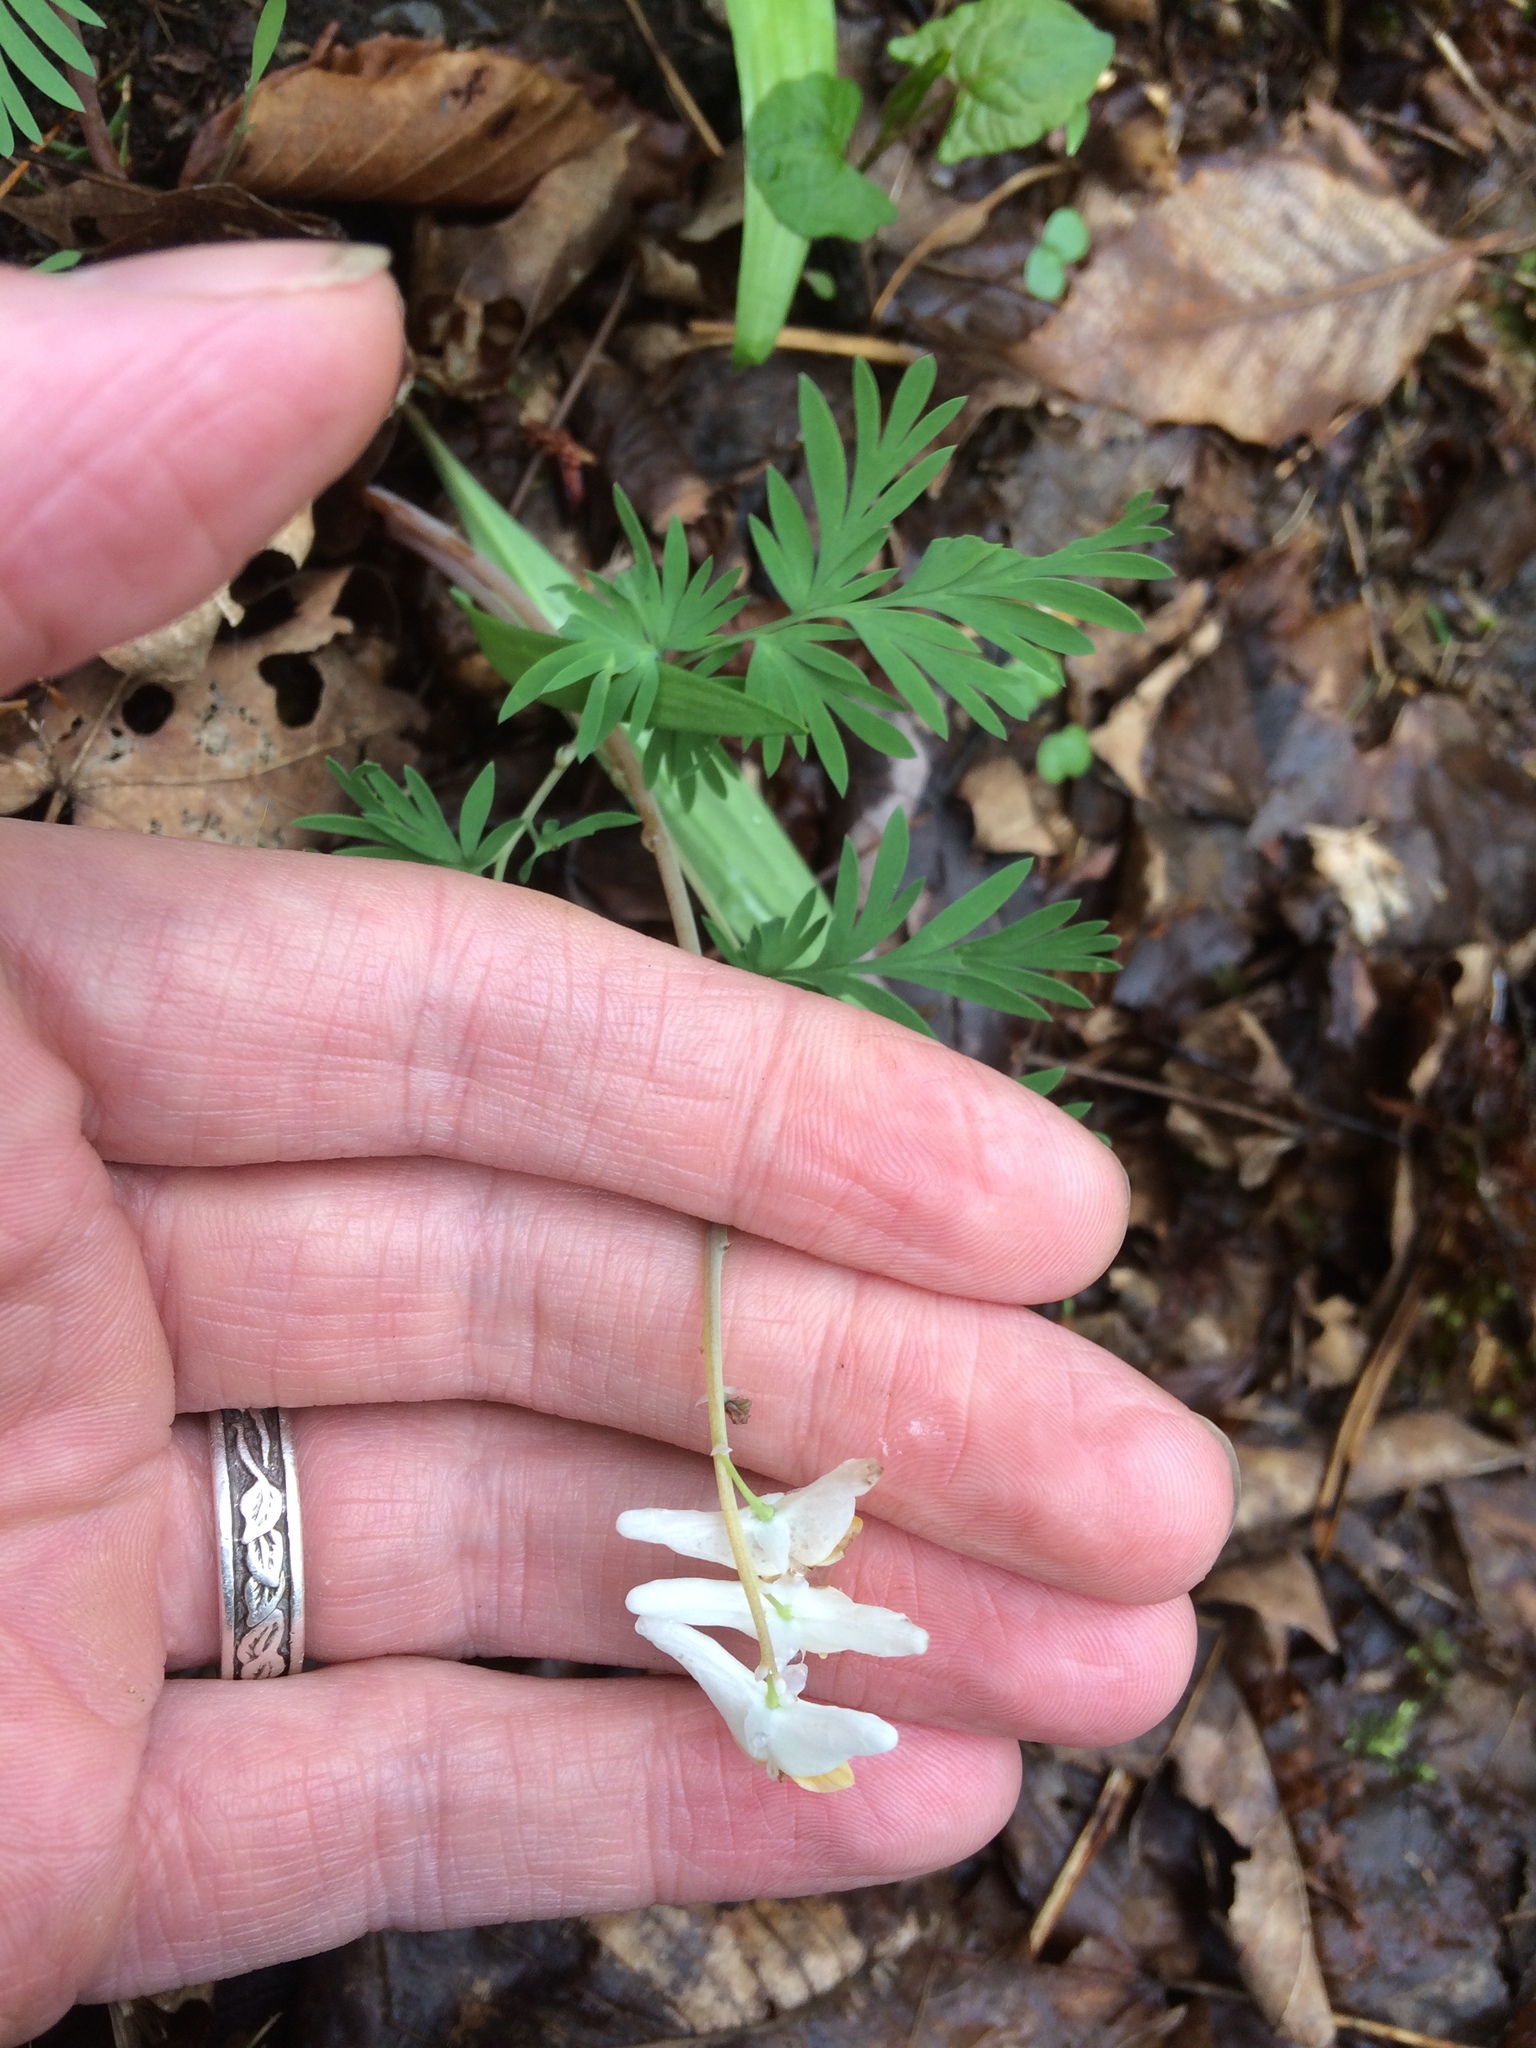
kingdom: Plantae
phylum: Tracheophyta
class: Magnoliopsida
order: Ranunculales
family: Papaveraceae
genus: Dicentra
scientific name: Dicentra cucullaria
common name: Dutchman's breeches
